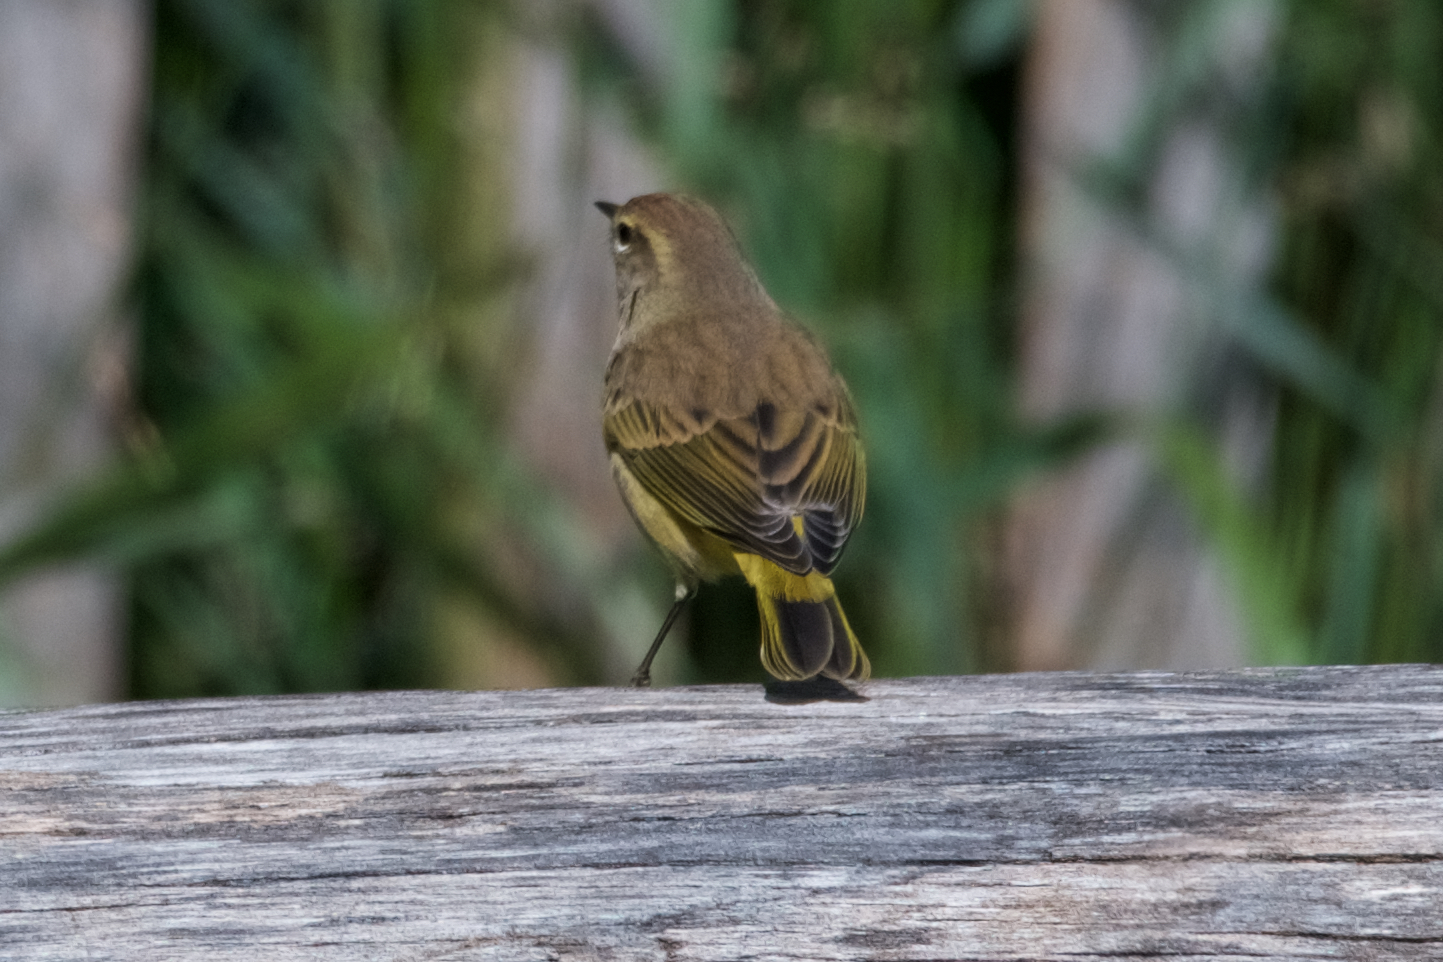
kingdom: Animalia
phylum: Chordata
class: Aves
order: Passeriformes
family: Parulidae
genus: Setophaga
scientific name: Setophaga palmarum
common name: Palm warbler
